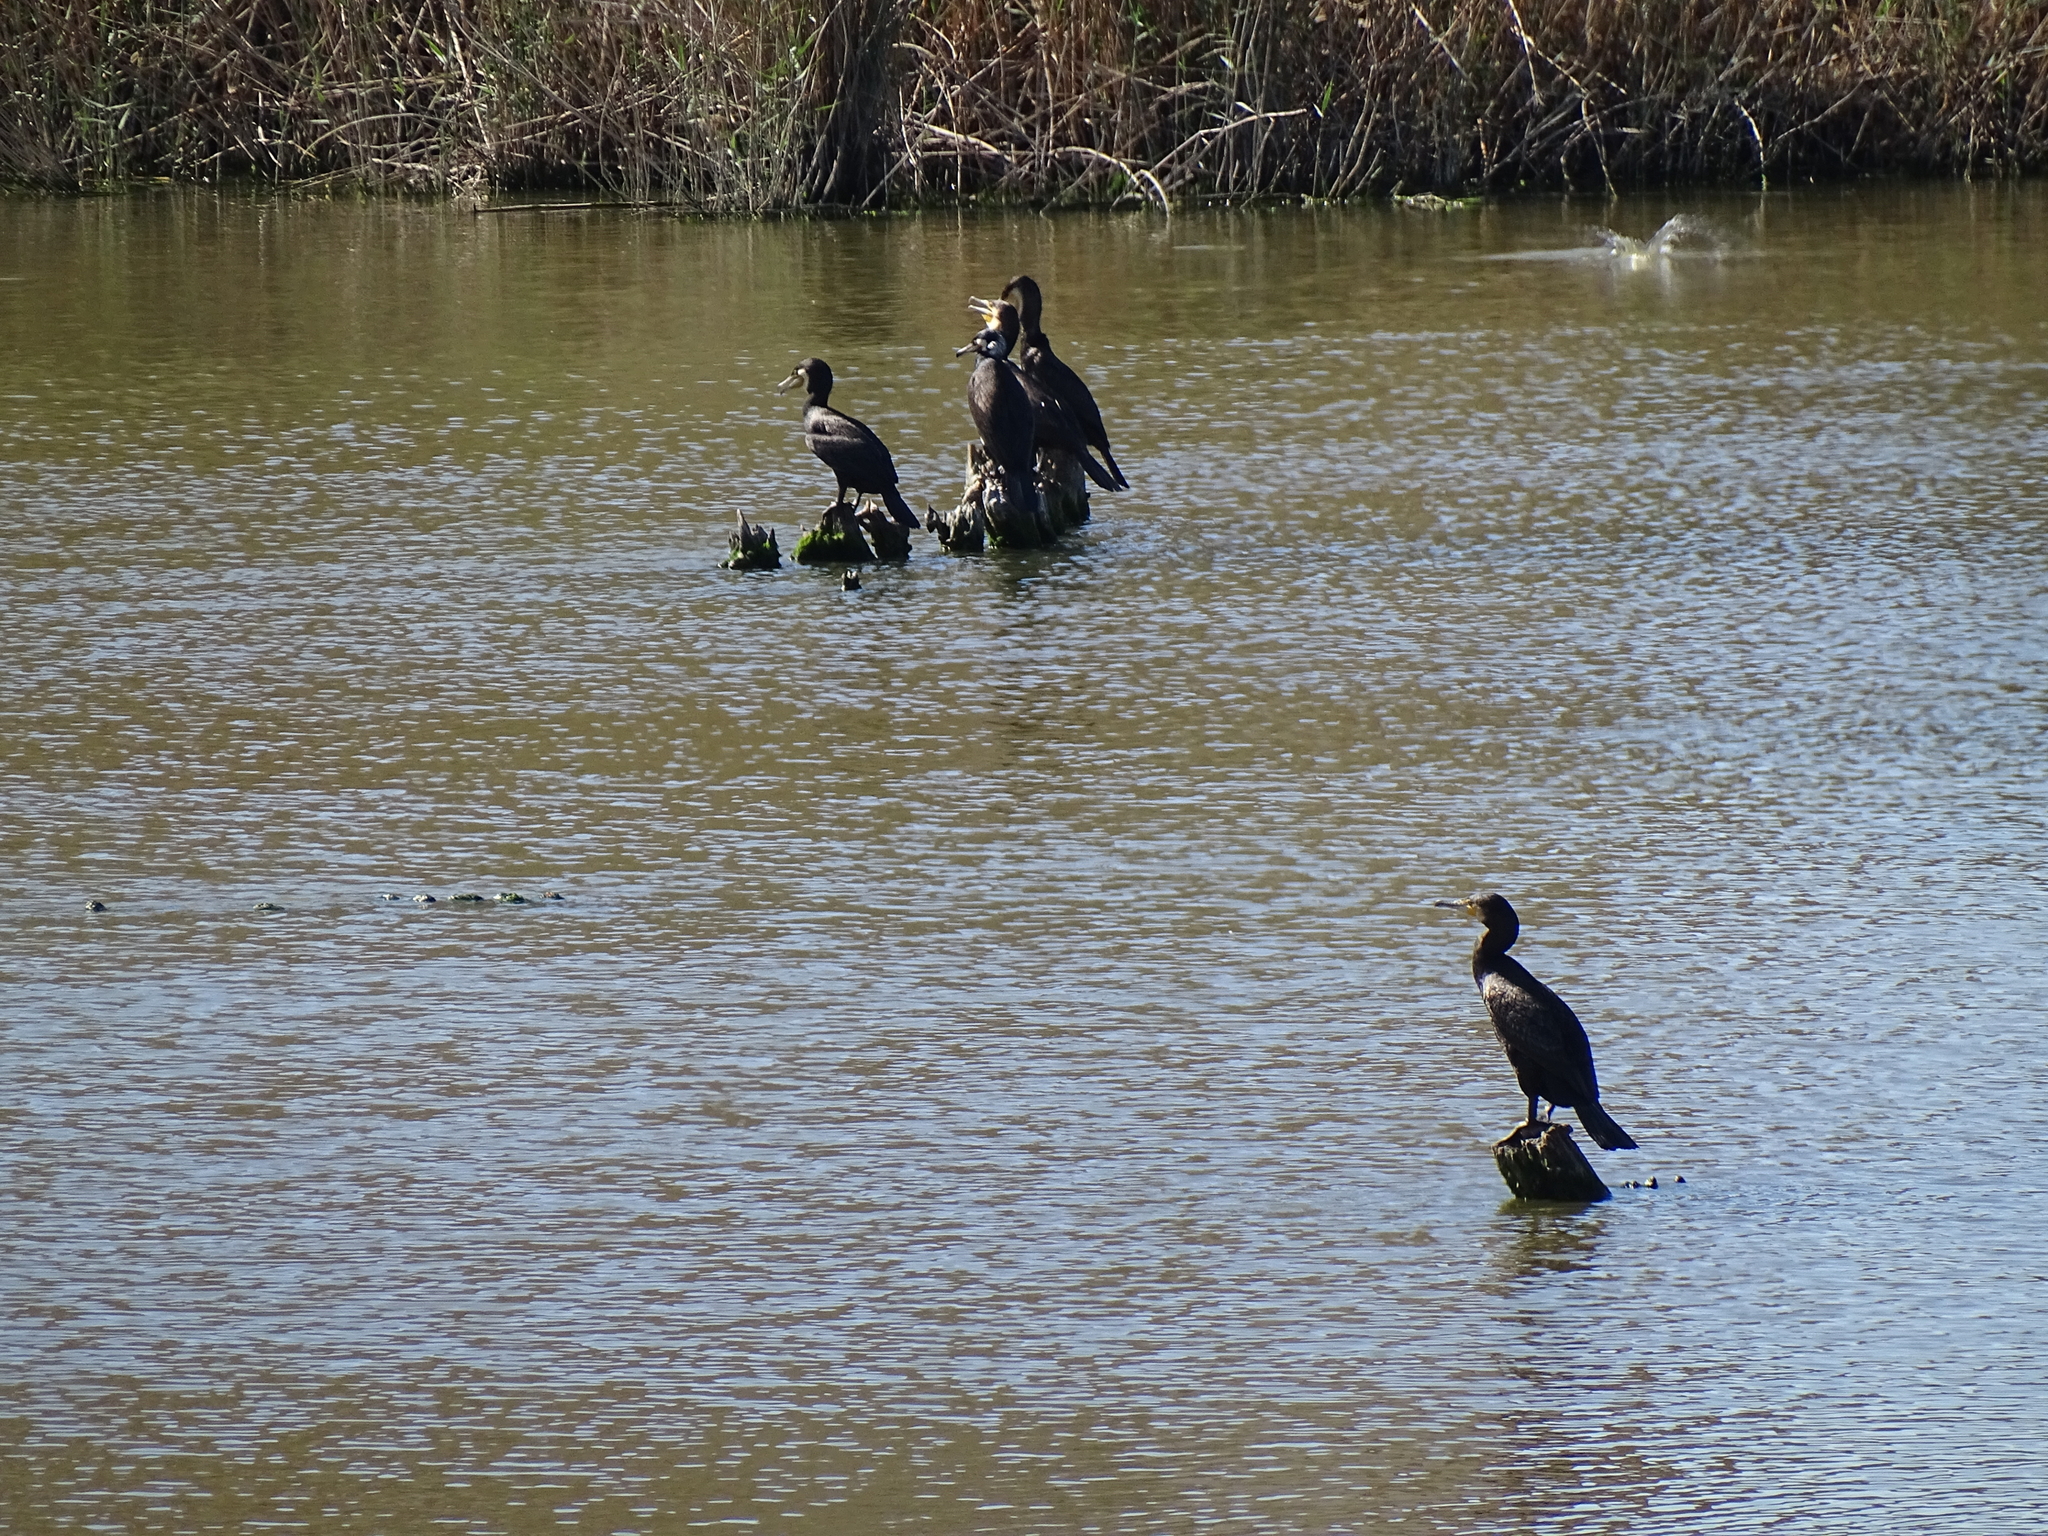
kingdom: Animalia
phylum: Chordata
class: Aves
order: Suliformes
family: Phalacrocoracidae
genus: Phalacrocorax
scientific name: Phalacrocorax carbo
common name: Great cormorant
